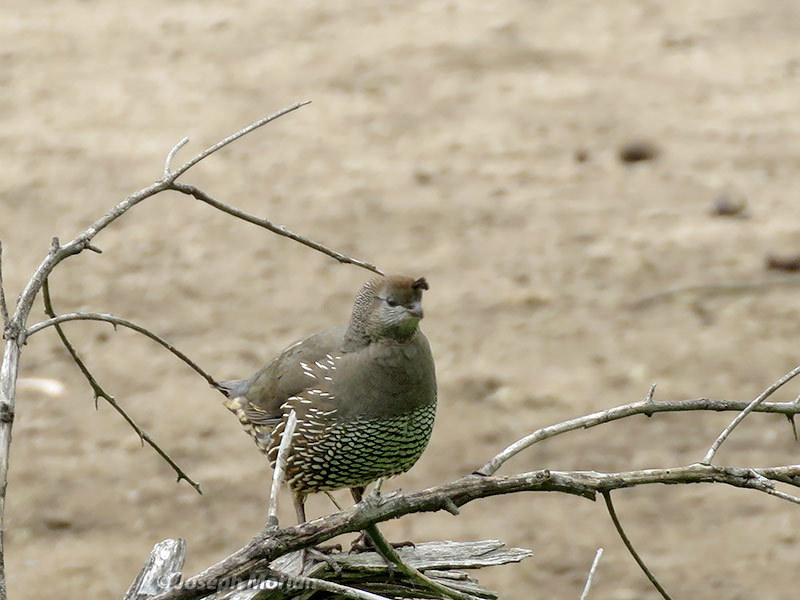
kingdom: Animalia
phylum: Chordata
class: Aves
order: Galliformes
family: Odontophoridae
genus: Callipepla
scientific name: Callipepla californica
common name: California quail
